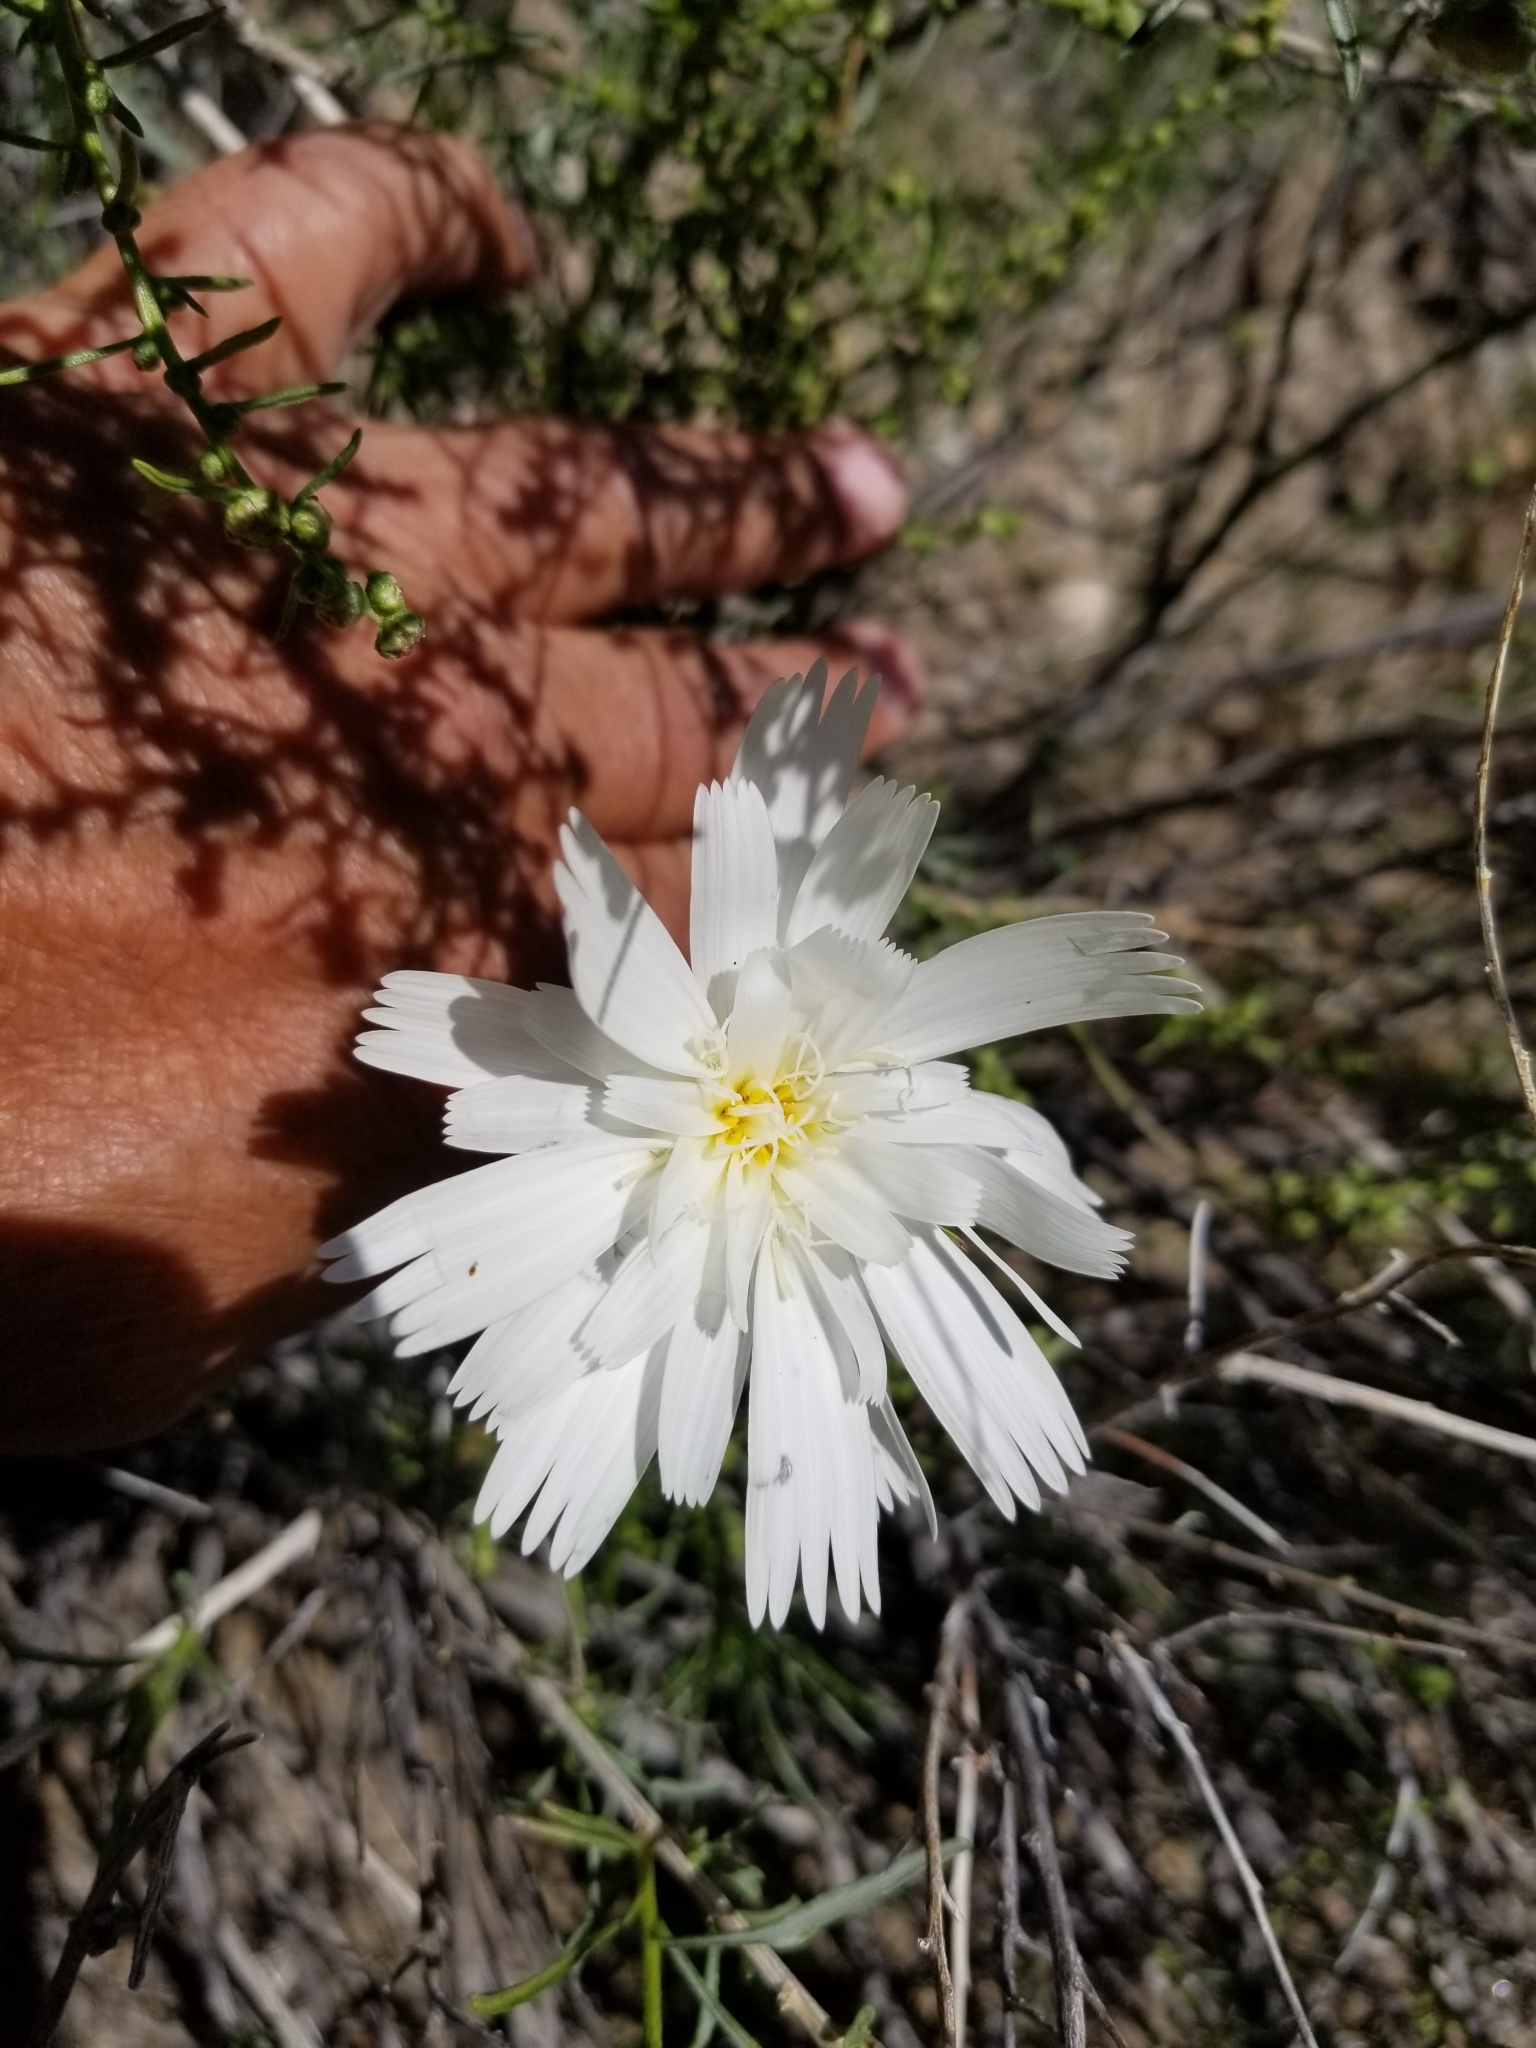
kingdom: Plantae
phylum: Tracheophyta
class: Magnoliopsida
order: Asterales
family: Asteraceae
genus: Rafinesquia
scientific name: Rafinesquia neomexicana
